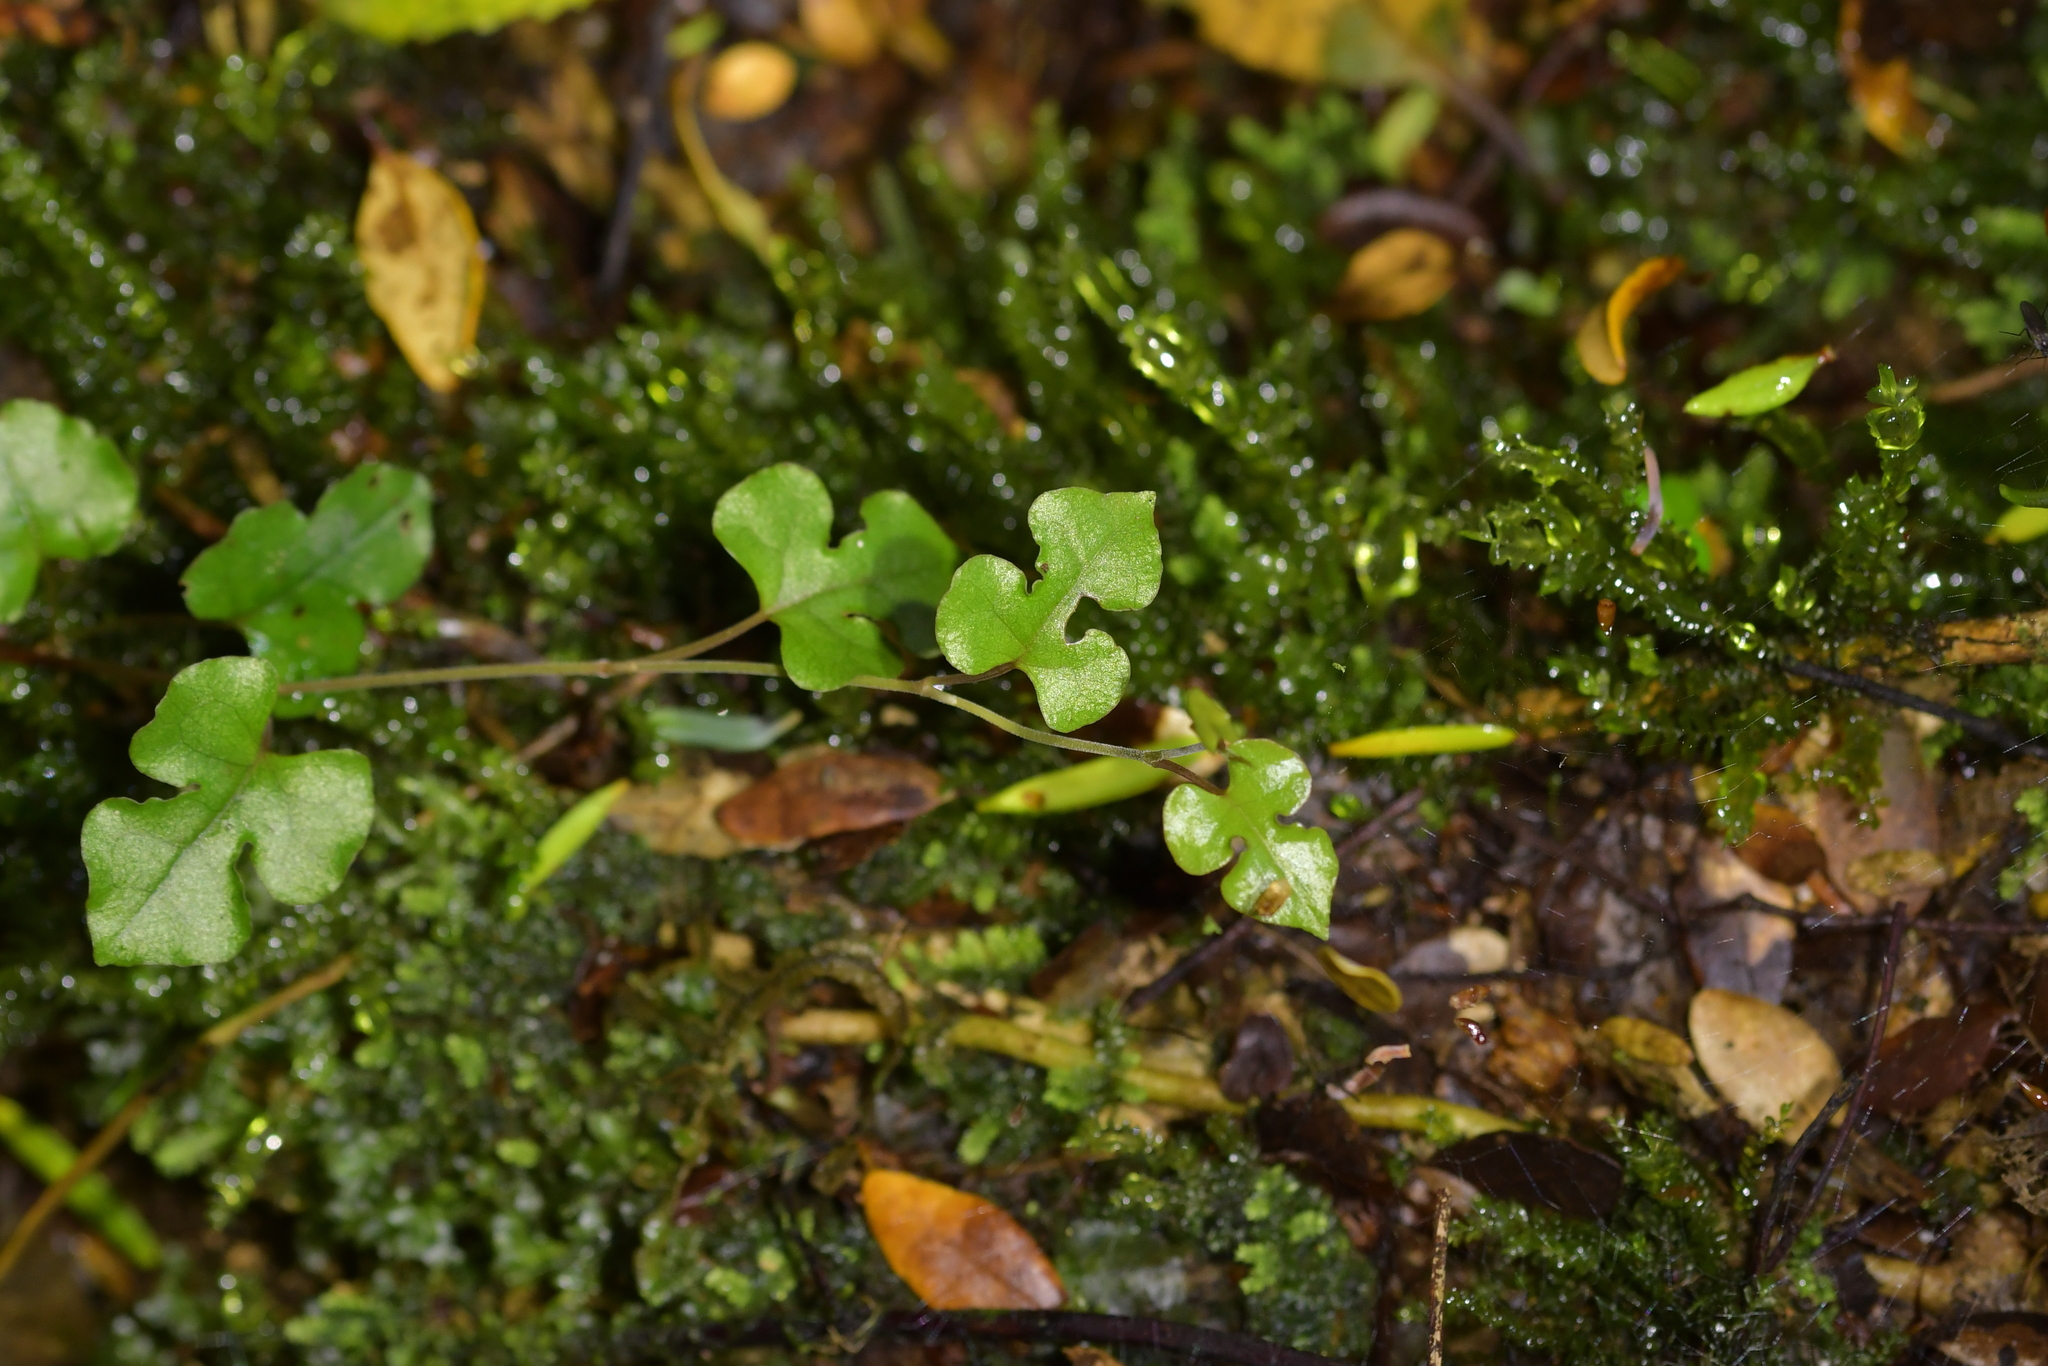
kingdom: Plantae
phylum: Tracheophyta
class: Magnoliopsida
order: Caryophyllales
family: Polygonaceae
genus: Muehlenbeckia
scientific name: Muehlenbeckia australis
